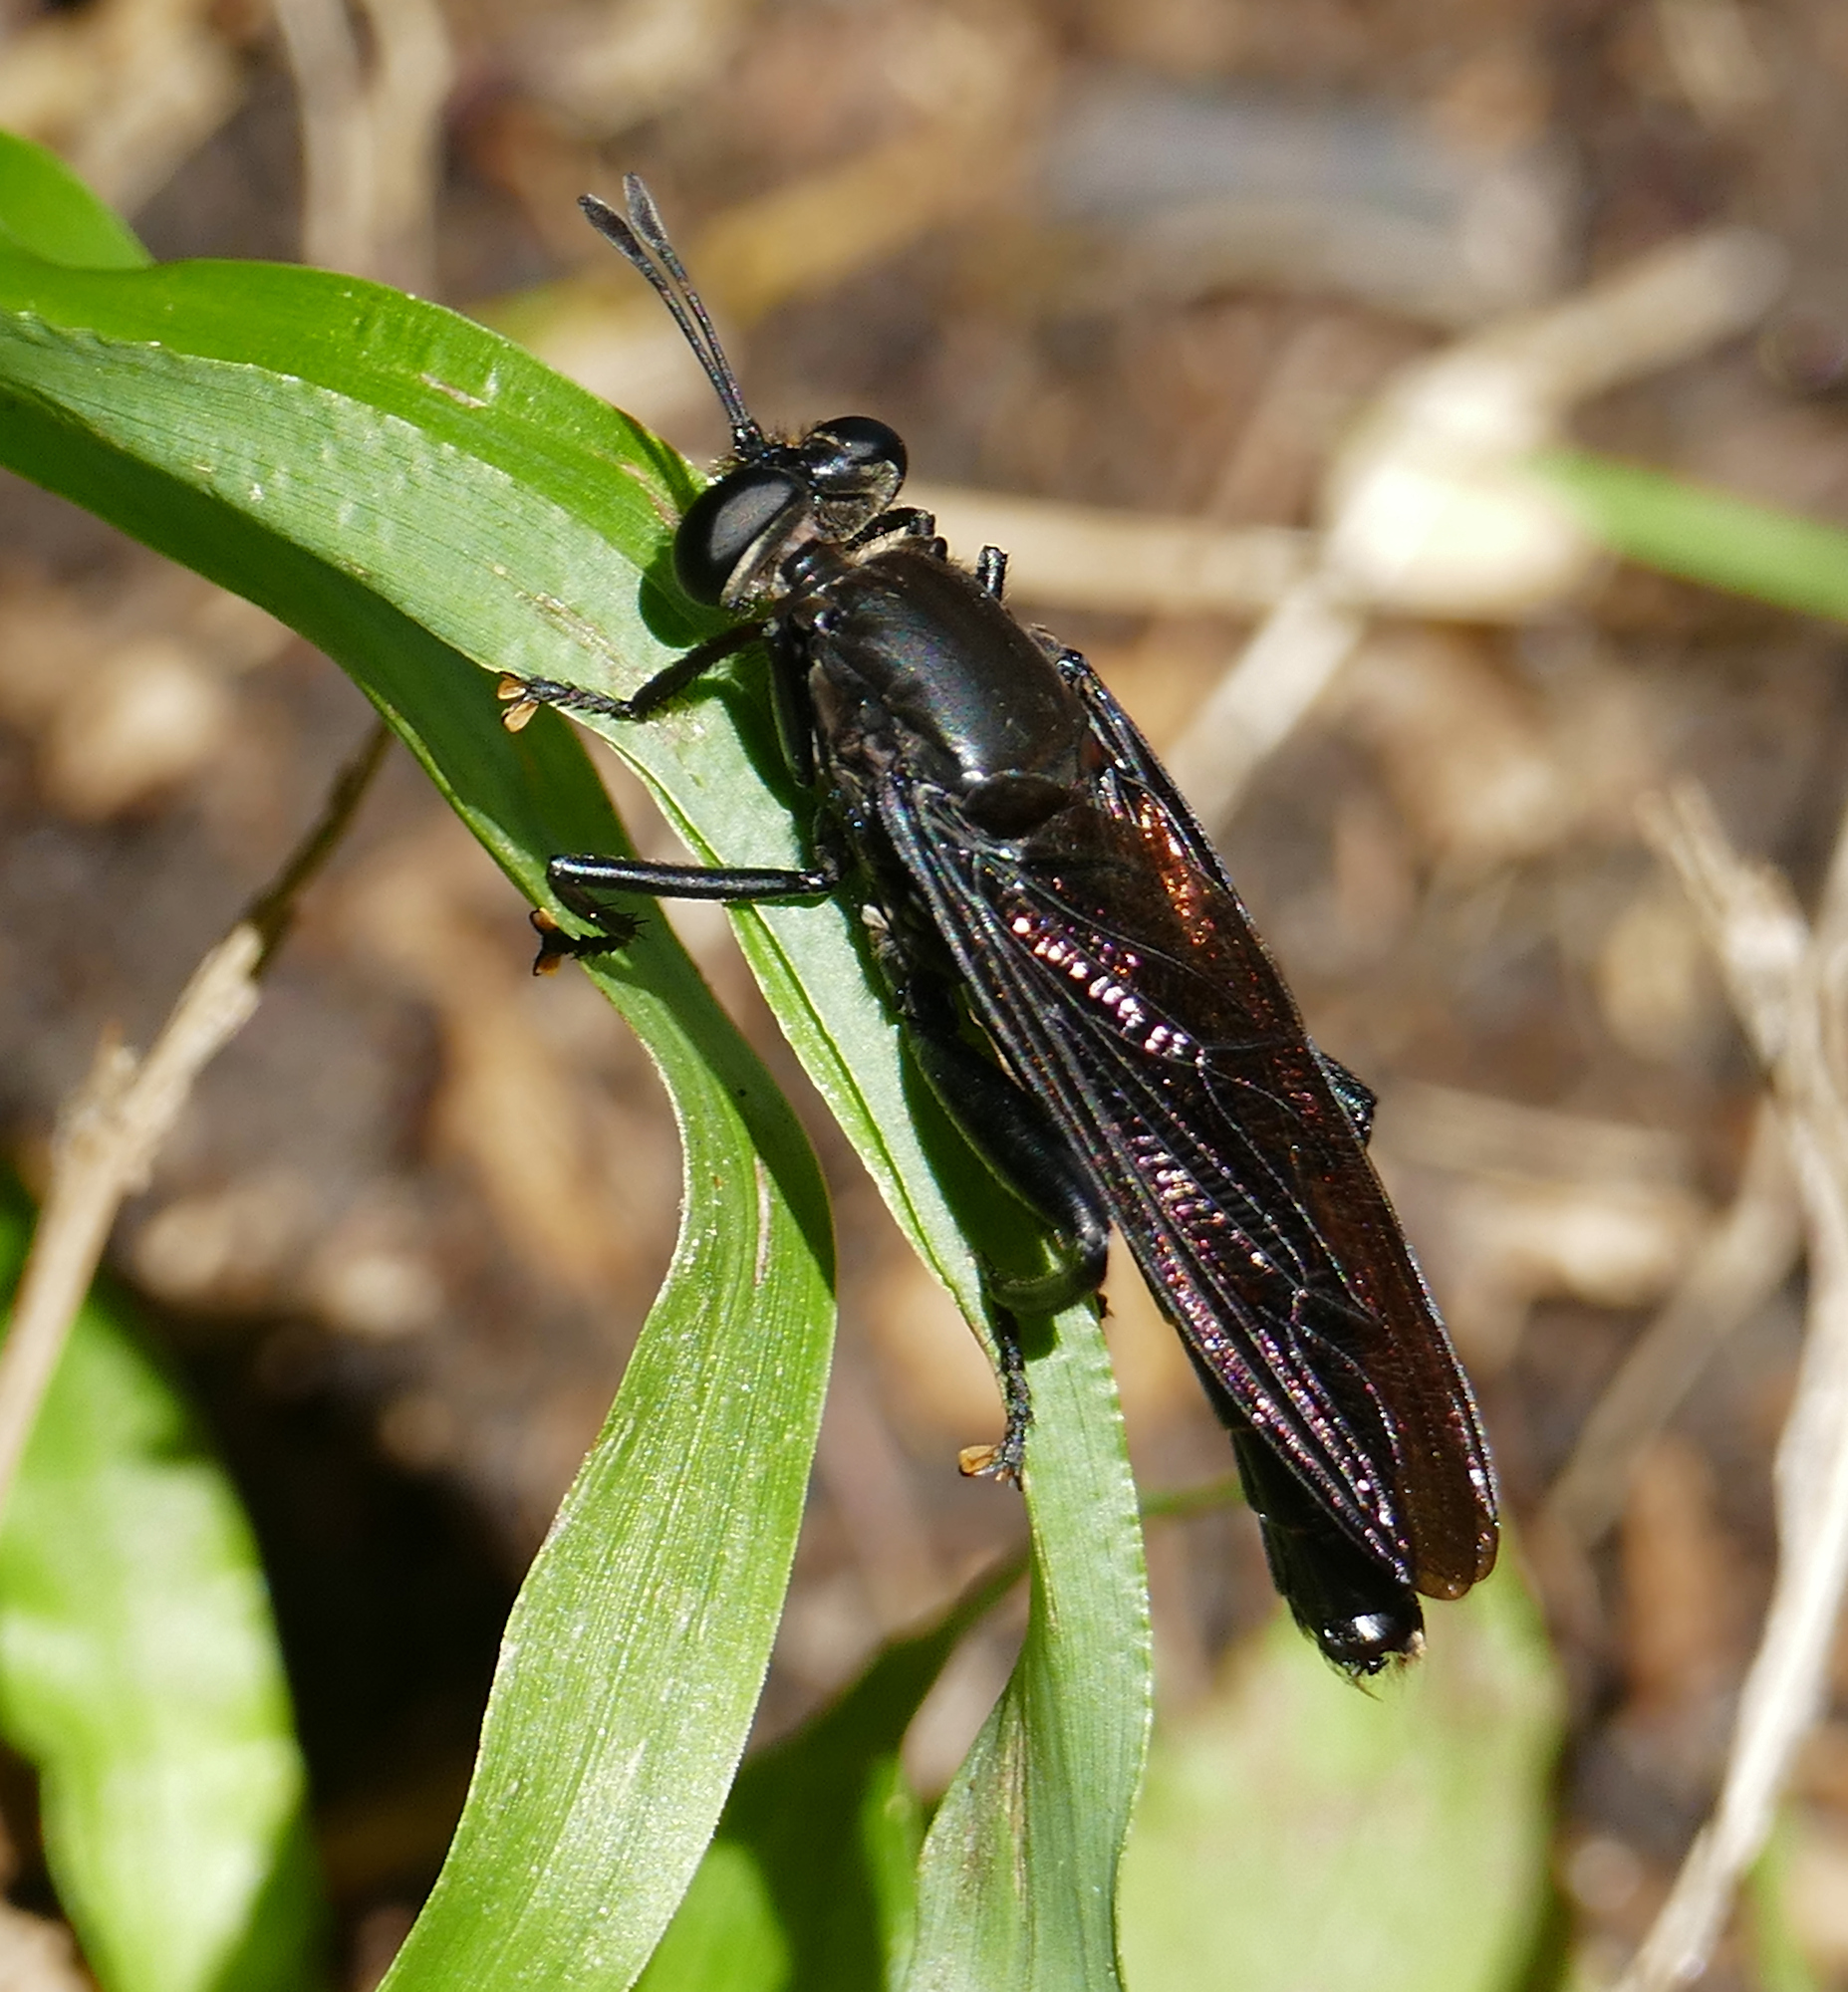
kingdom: Animalia
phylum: Arthropoda
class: Insecta
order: Diptera
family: Mydidae
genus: Mydas
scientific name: Mydas fulvifrons
